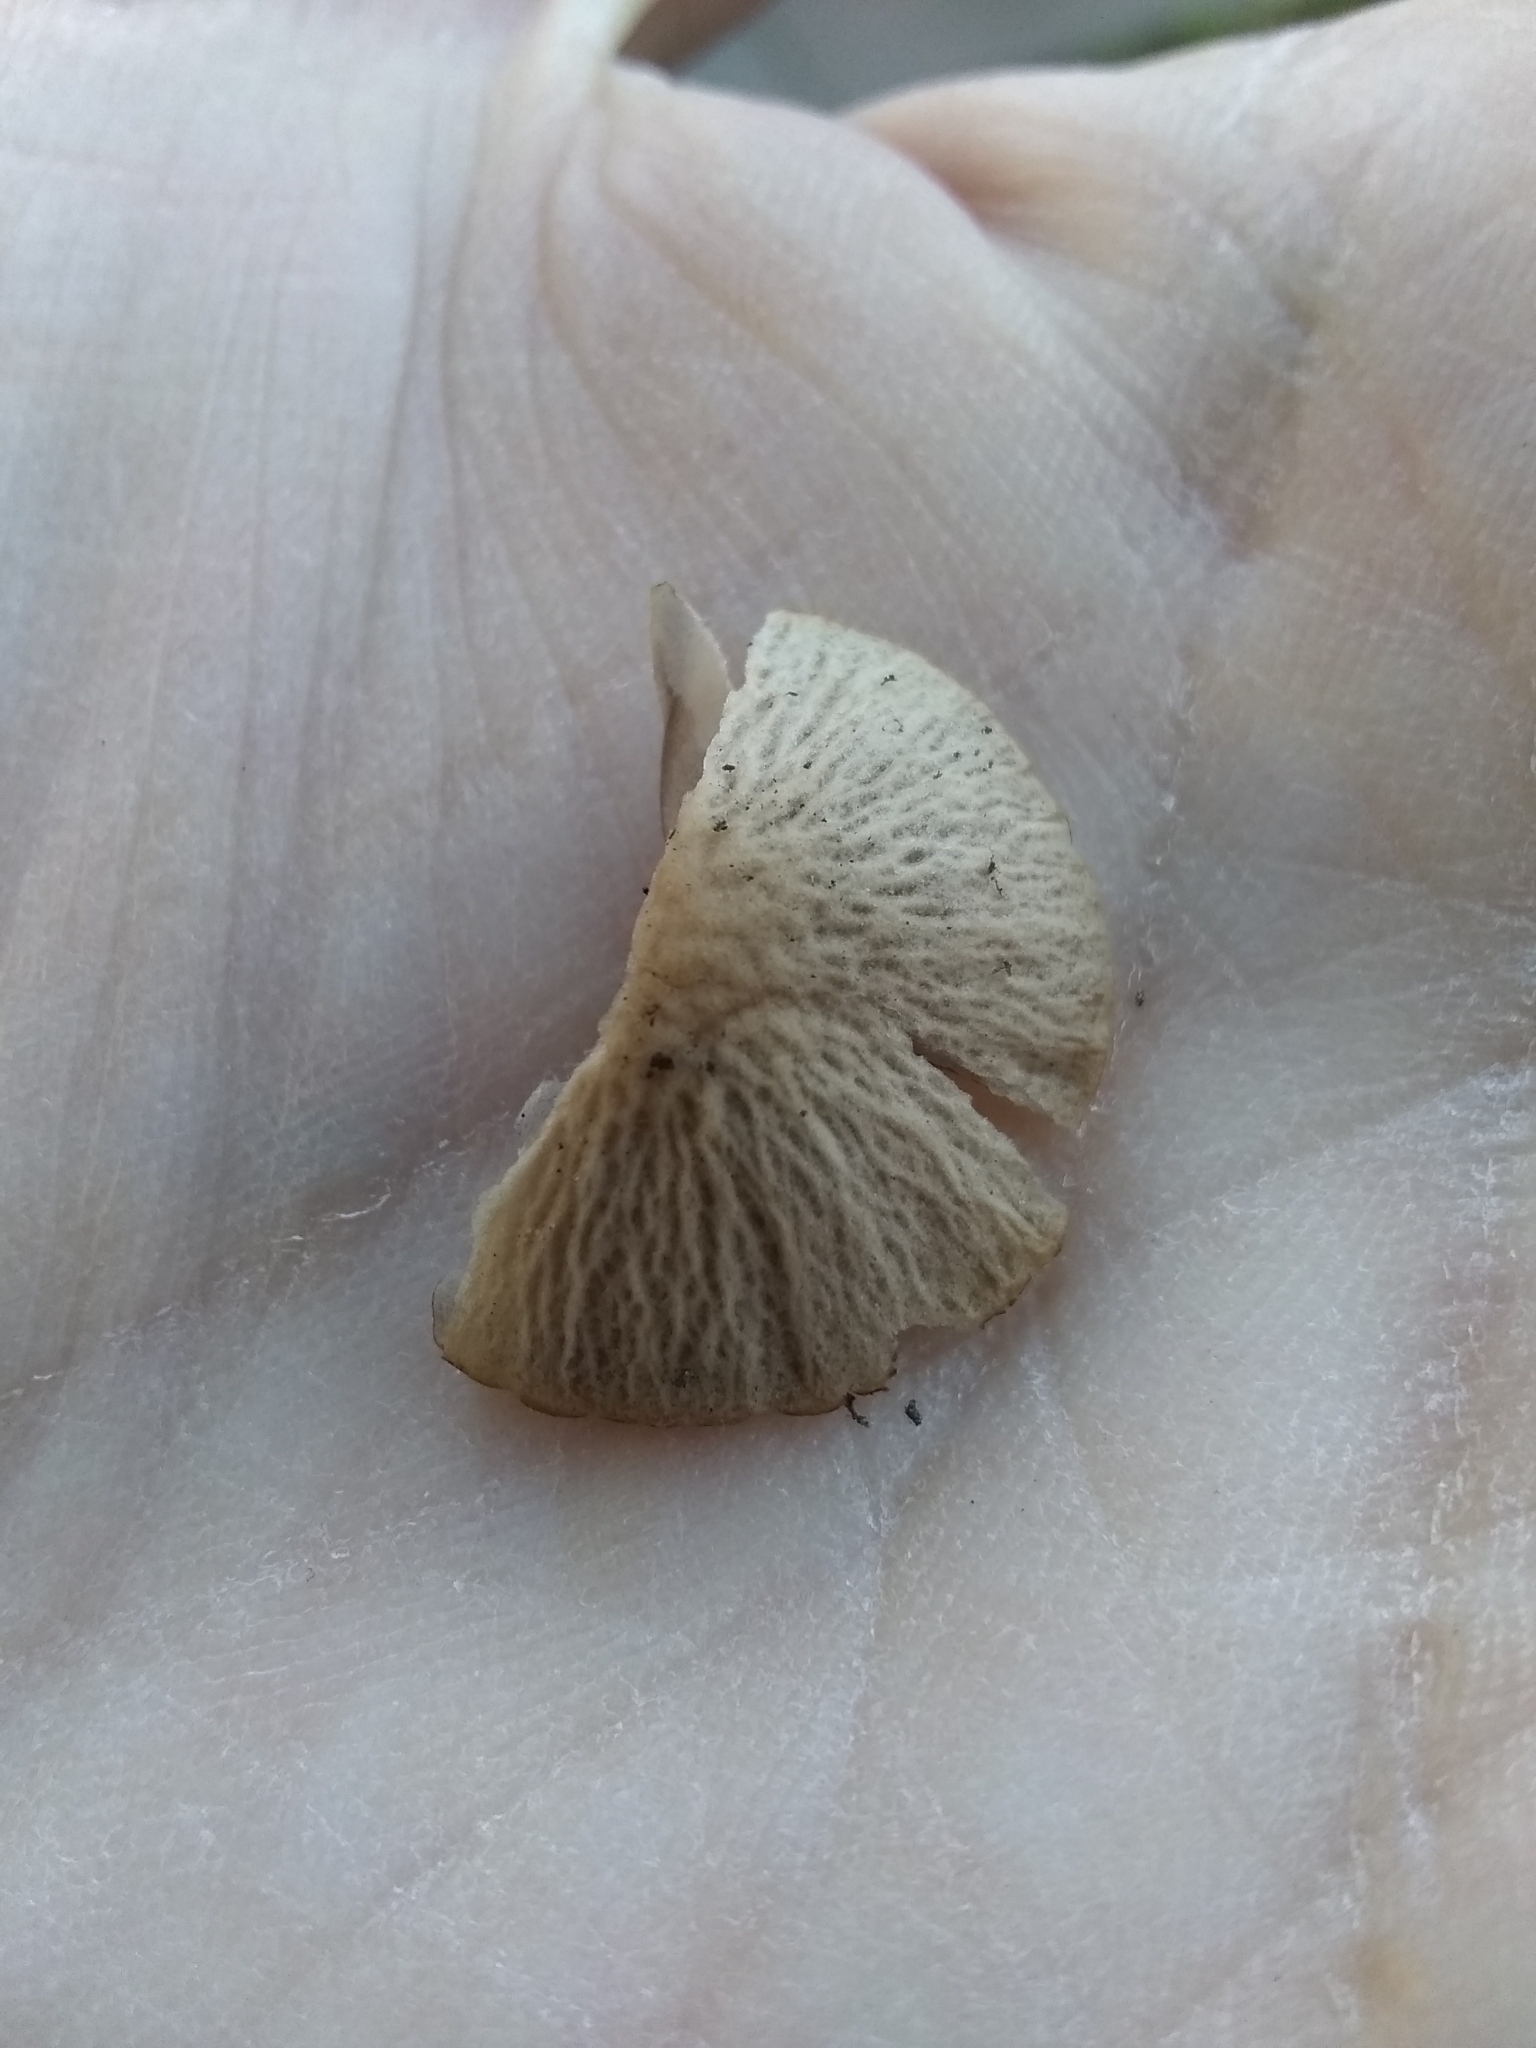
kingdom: Fungi
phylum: Basidiomycota
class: Agaricomycetes
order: Agaricales
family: Psathyrellaceae
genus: Psathyrella
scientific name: Psathyrella corrugis
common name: Red edge brittlestem
